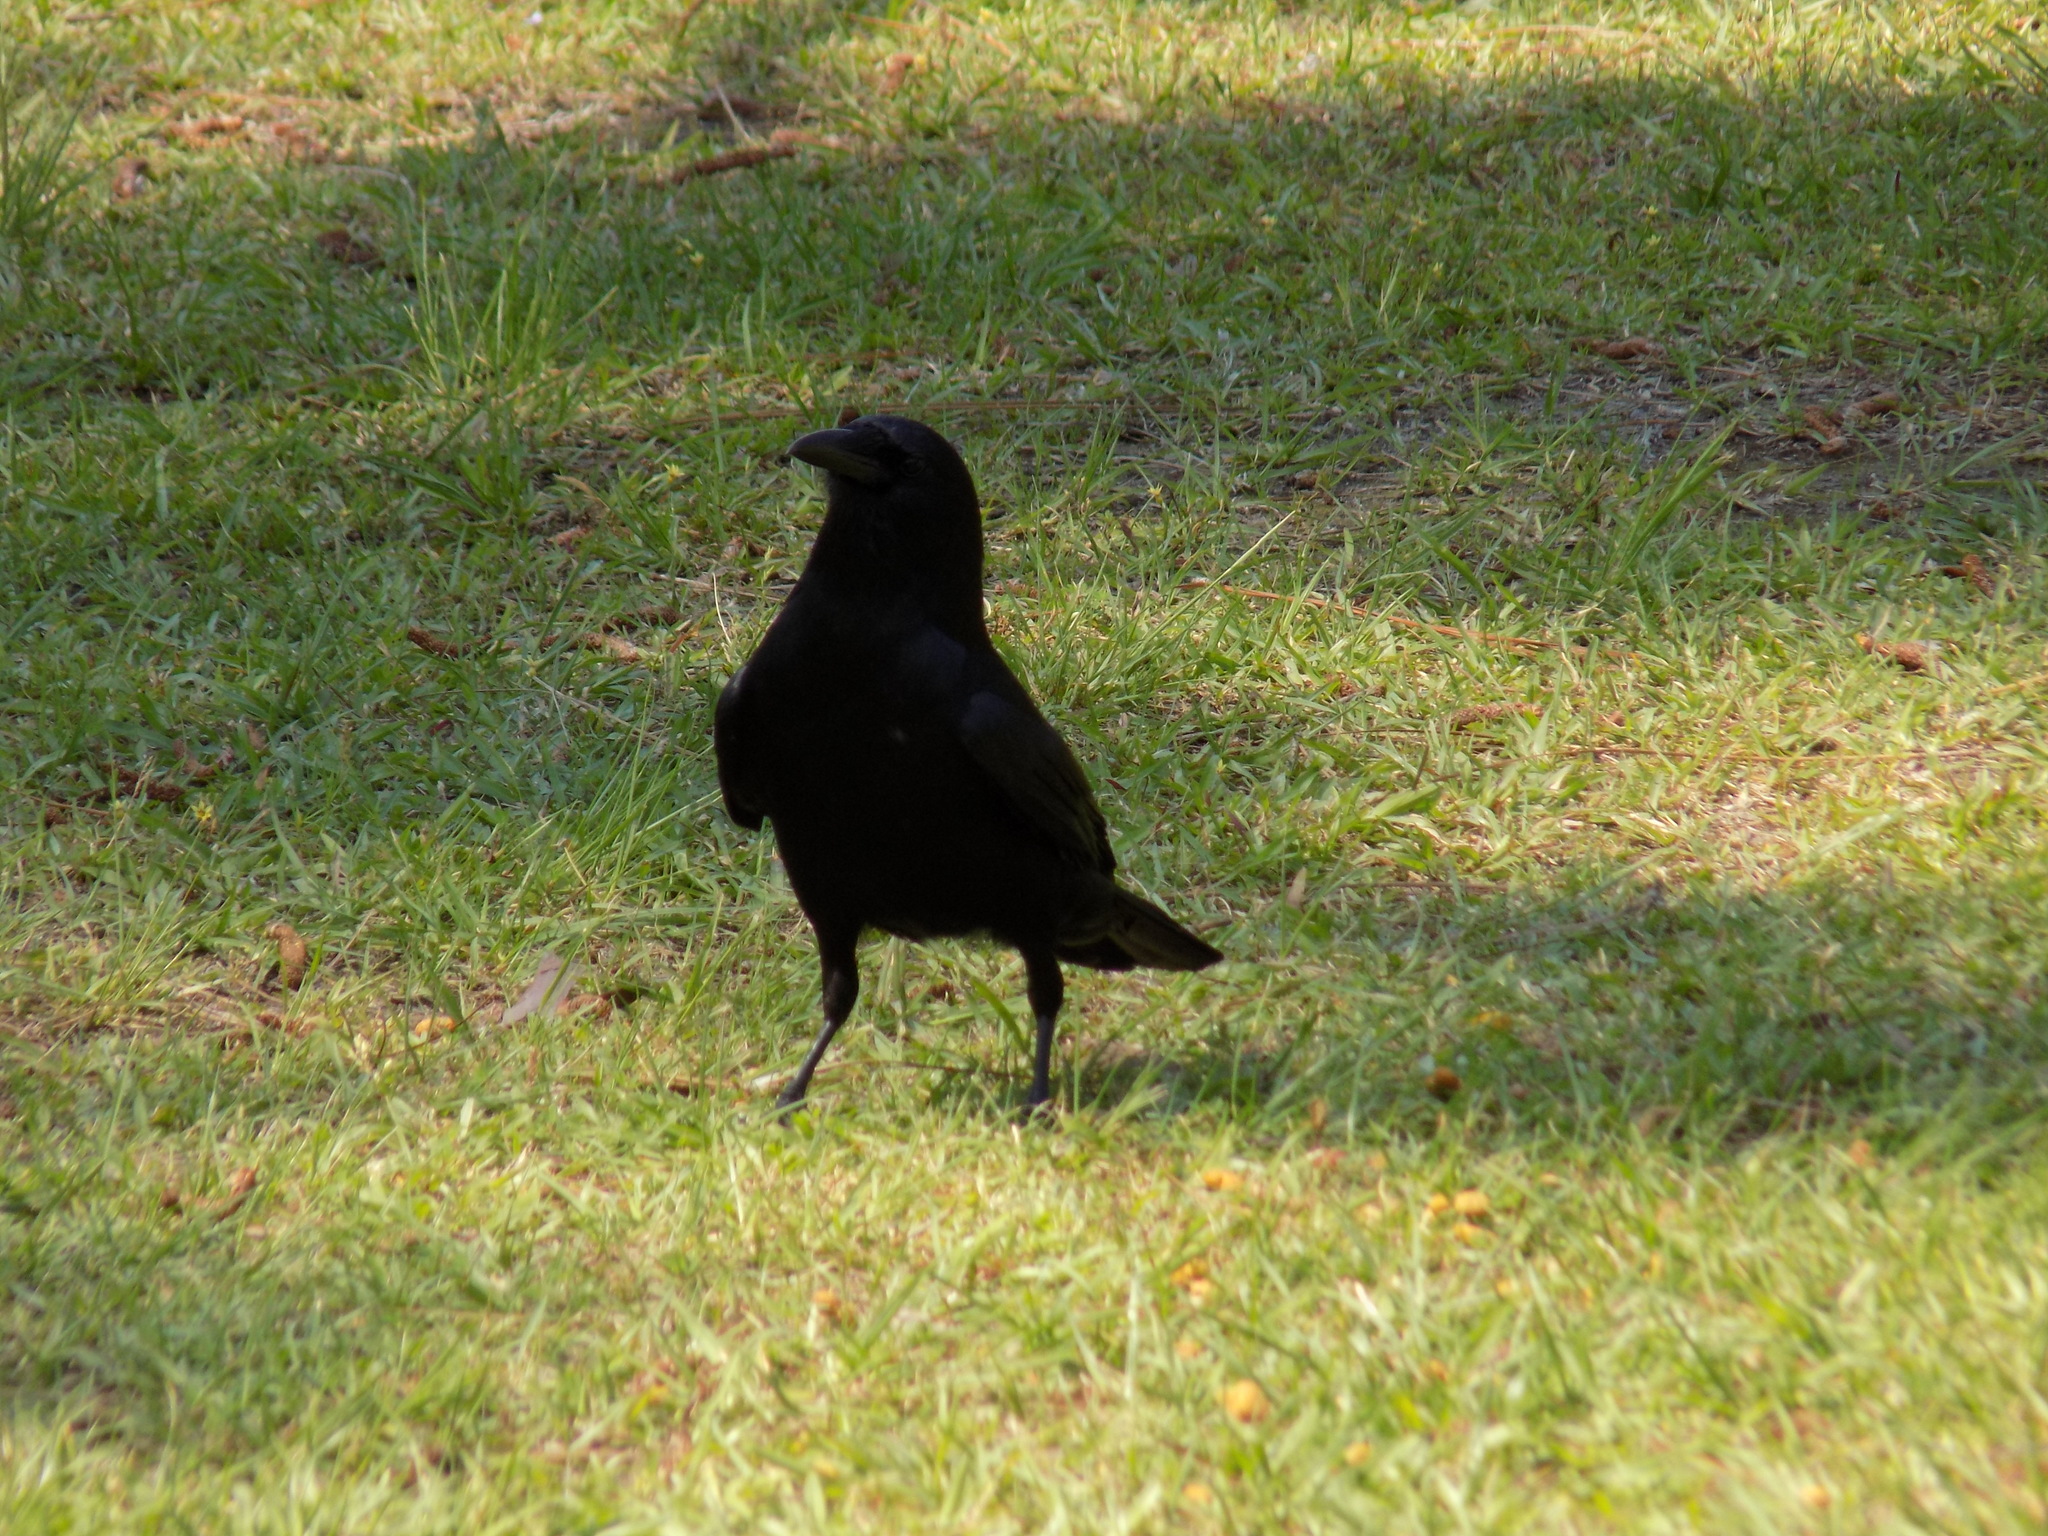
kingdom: Animalia
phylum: Chordata
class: Aves
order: Passeriformes
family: Corvidae
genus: Corvus
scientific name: Corvus ossifragus
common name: Fish crow
